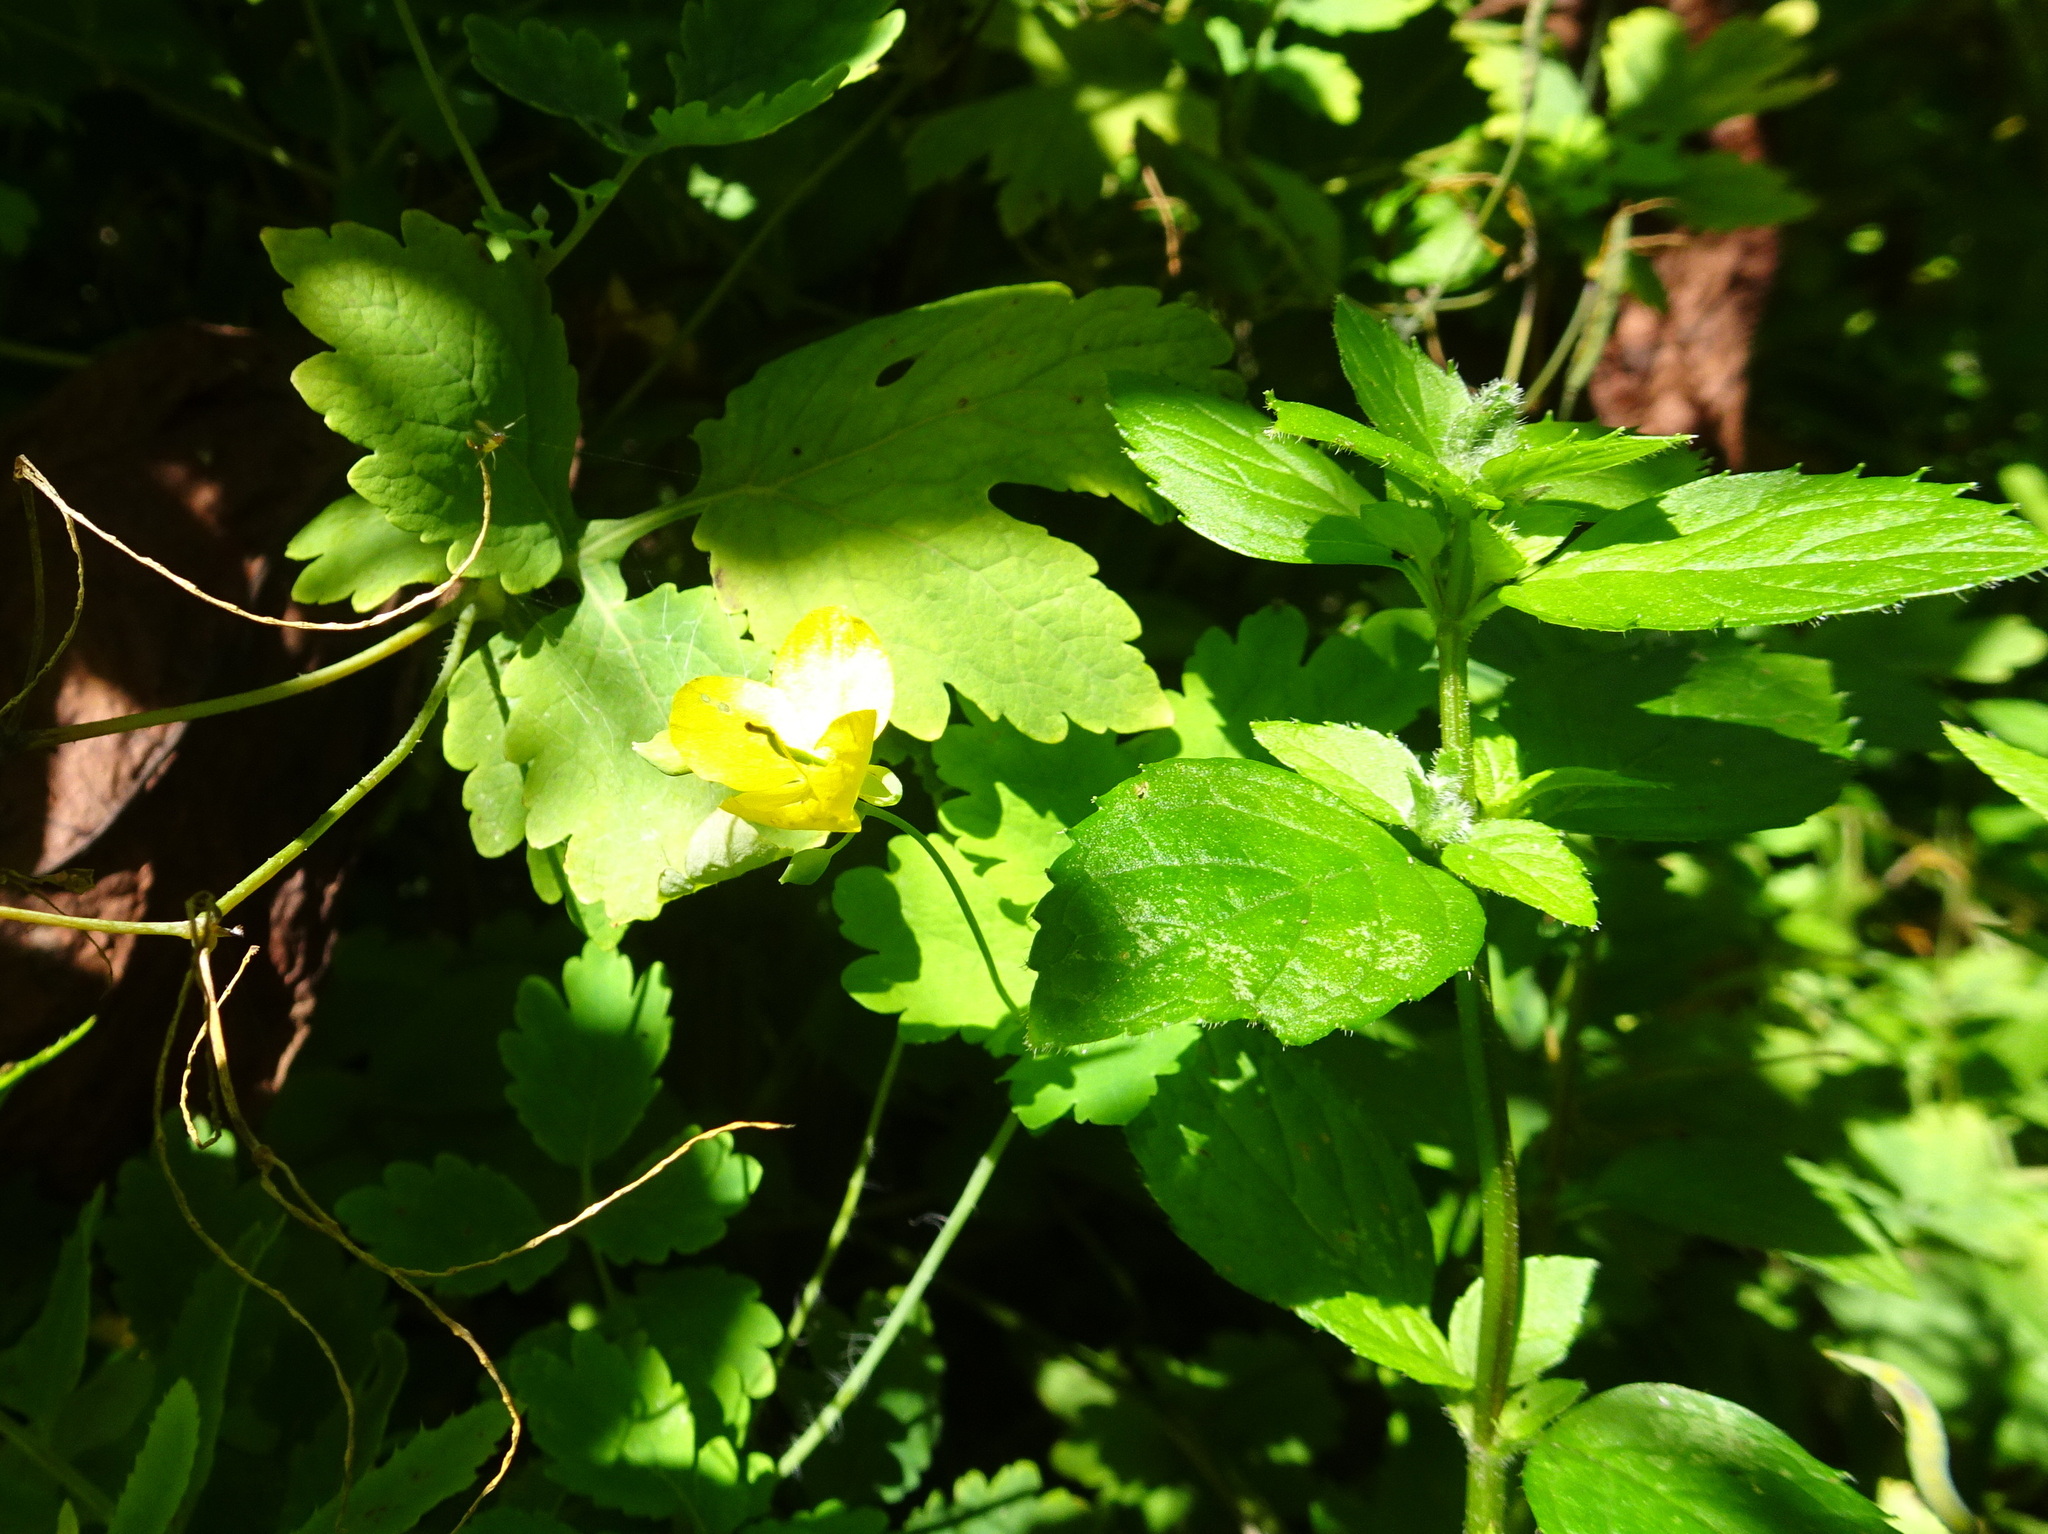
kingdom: Plantae
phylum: Tracheophyta
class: Magnoliopsida
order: Ranunculales
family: Papaveraceae
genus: Chelidonium
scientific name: Chelidonium majus
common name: Greater celandine
